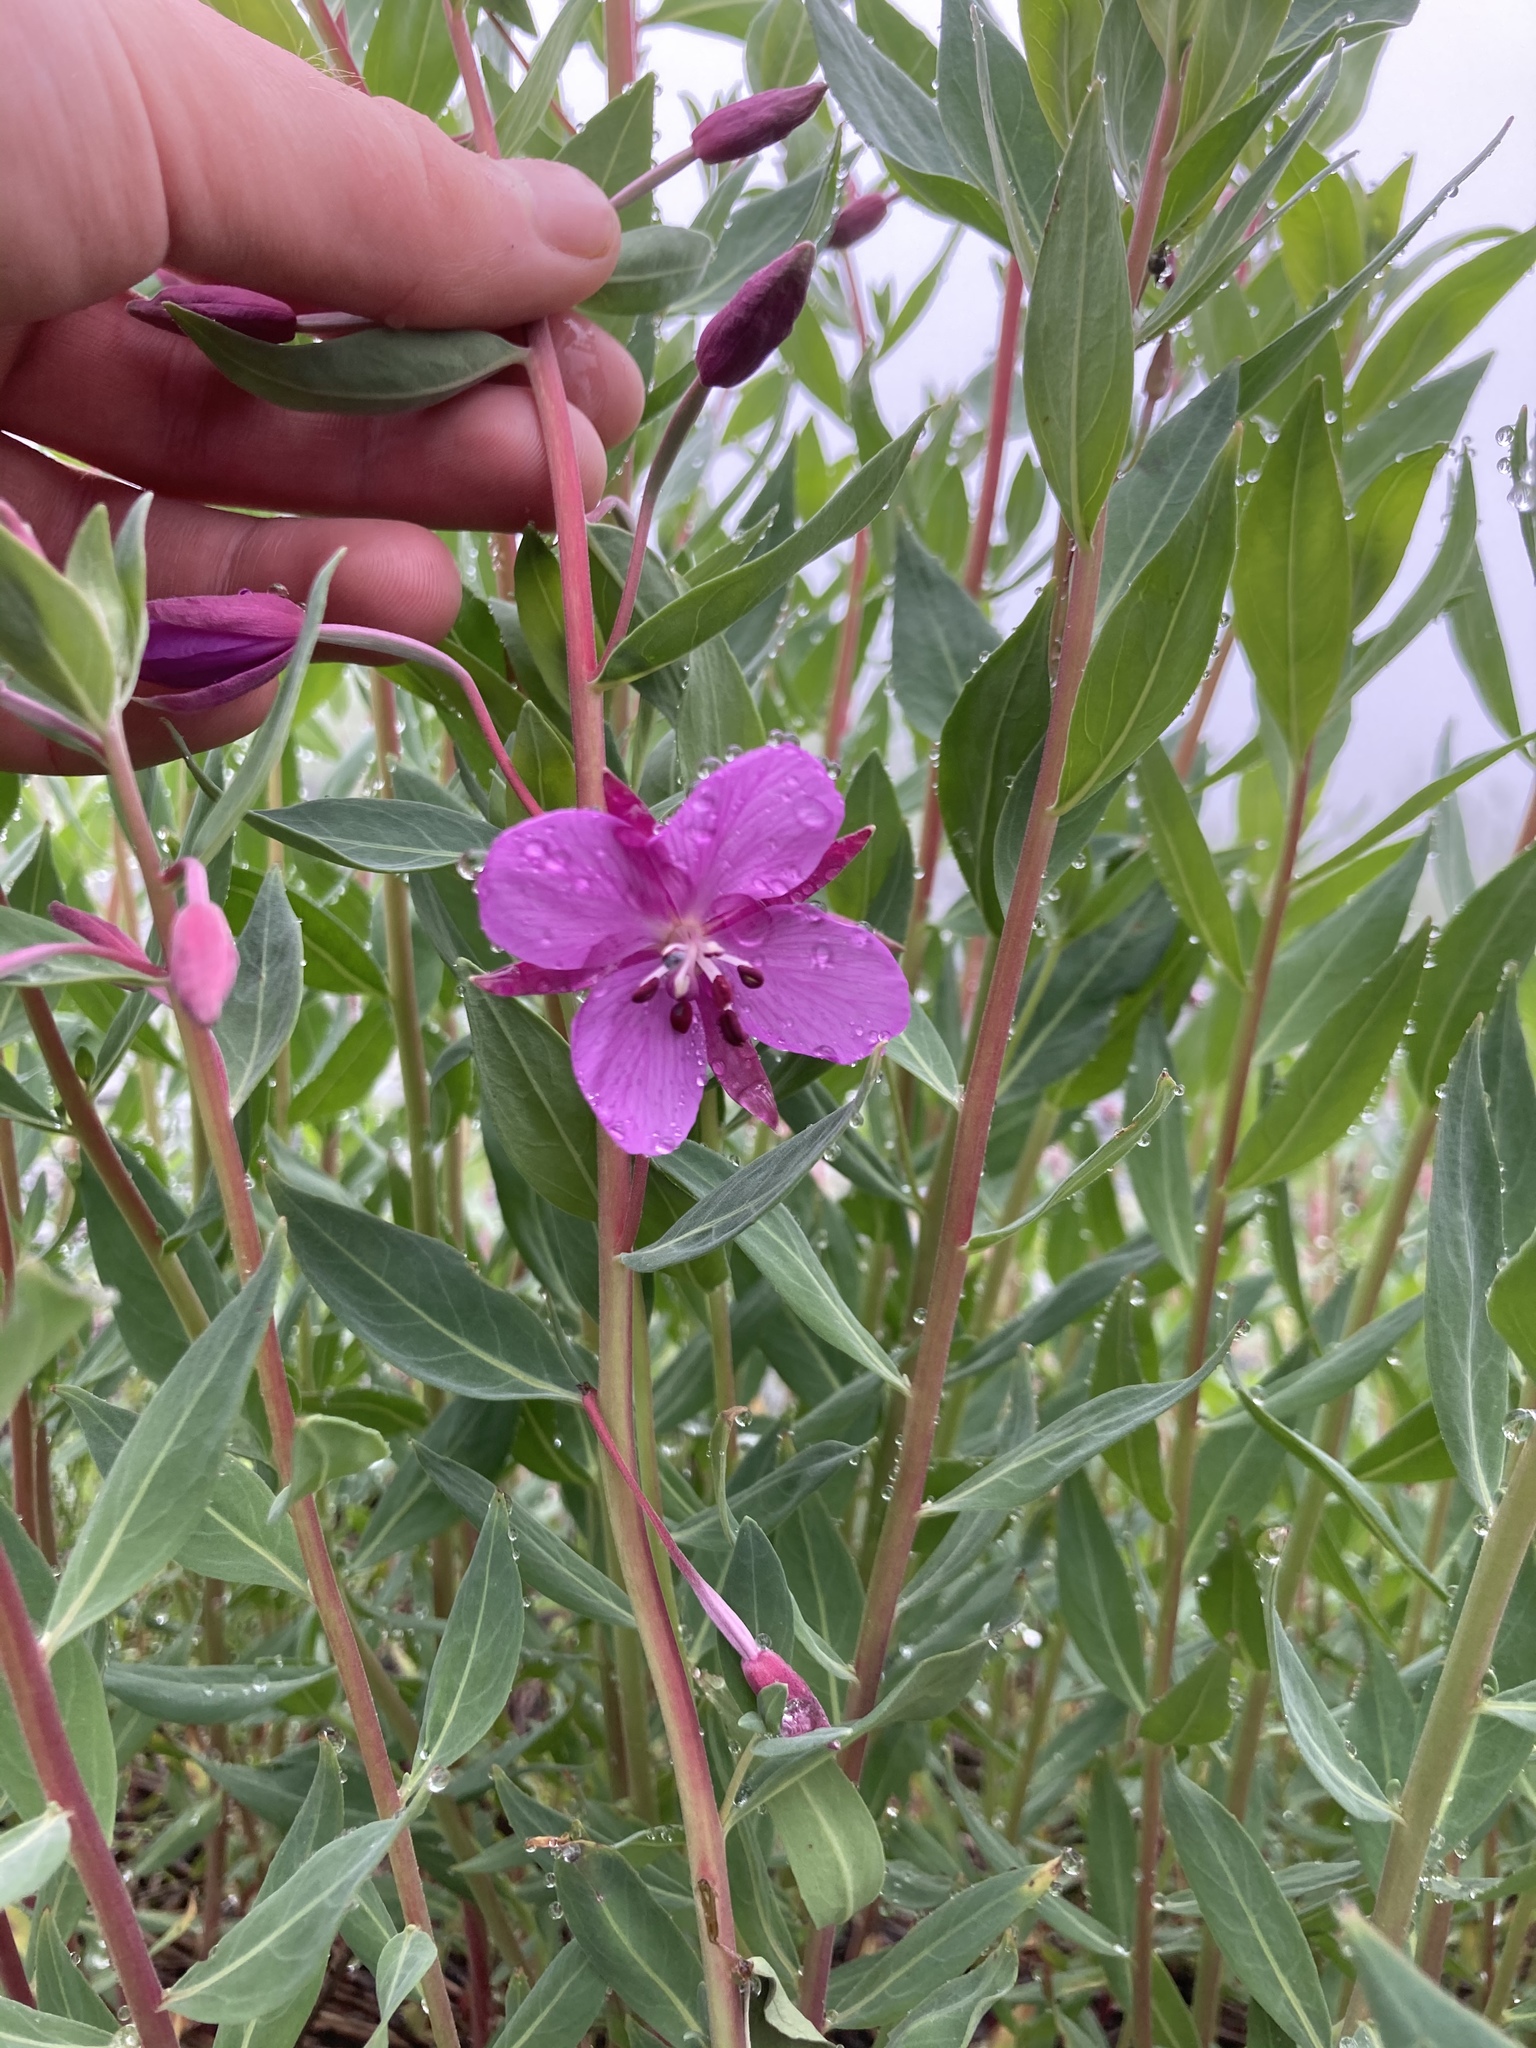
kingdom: Plantae
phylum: Tracheophyta
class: Magnoliopsida
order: Myrtales
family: Onagraceae
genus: Chamaenerion
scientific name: Chamaenerion latifolium
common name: Dwarf fireweed
